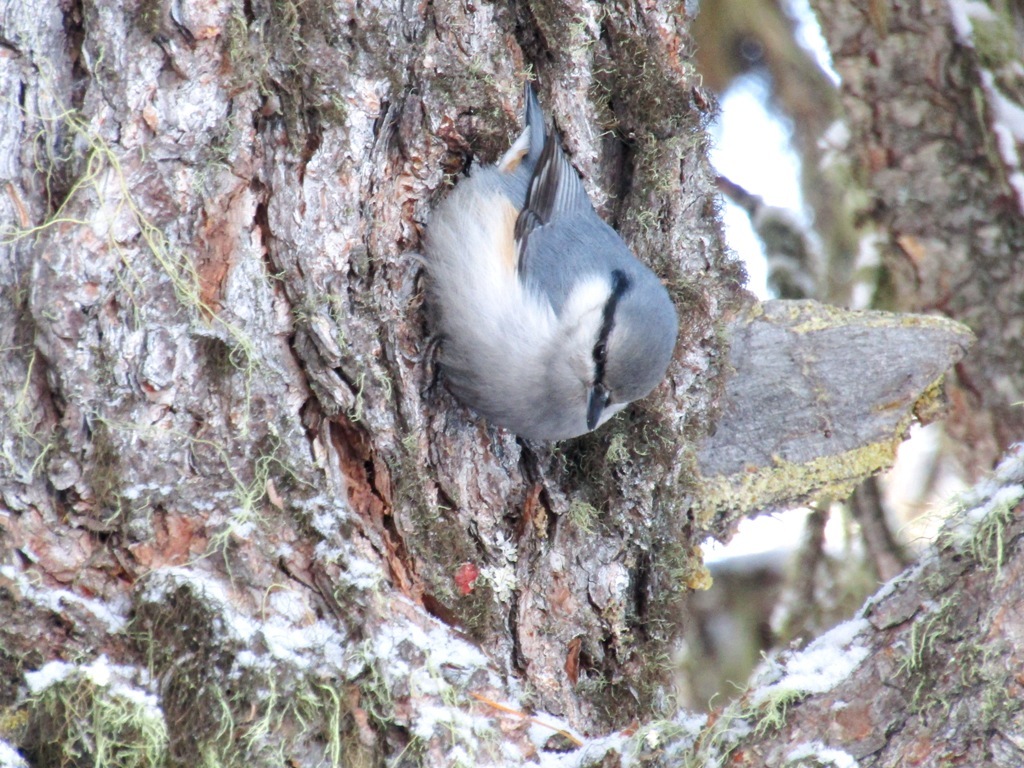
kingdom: Animalia
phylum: Chordata
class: Aves
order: Passeriformes
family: Sittidae
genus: Sitta
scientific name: Sitta europaea
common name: Eurasian nuthatch
